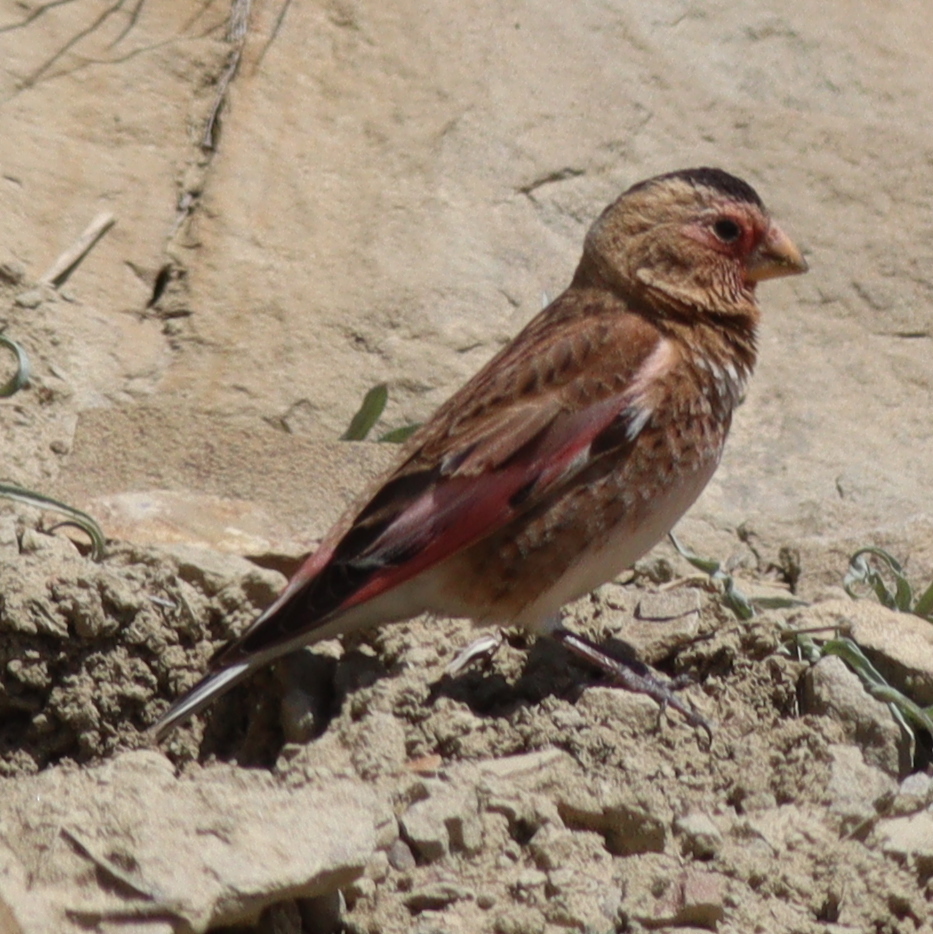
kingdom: Animalia
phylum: Chordata
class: Aves
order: Passeriformes
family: Fringillidae
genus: Rhodopechys
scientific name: Rhodopechys sanguineus
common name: Crimson-winged finch
